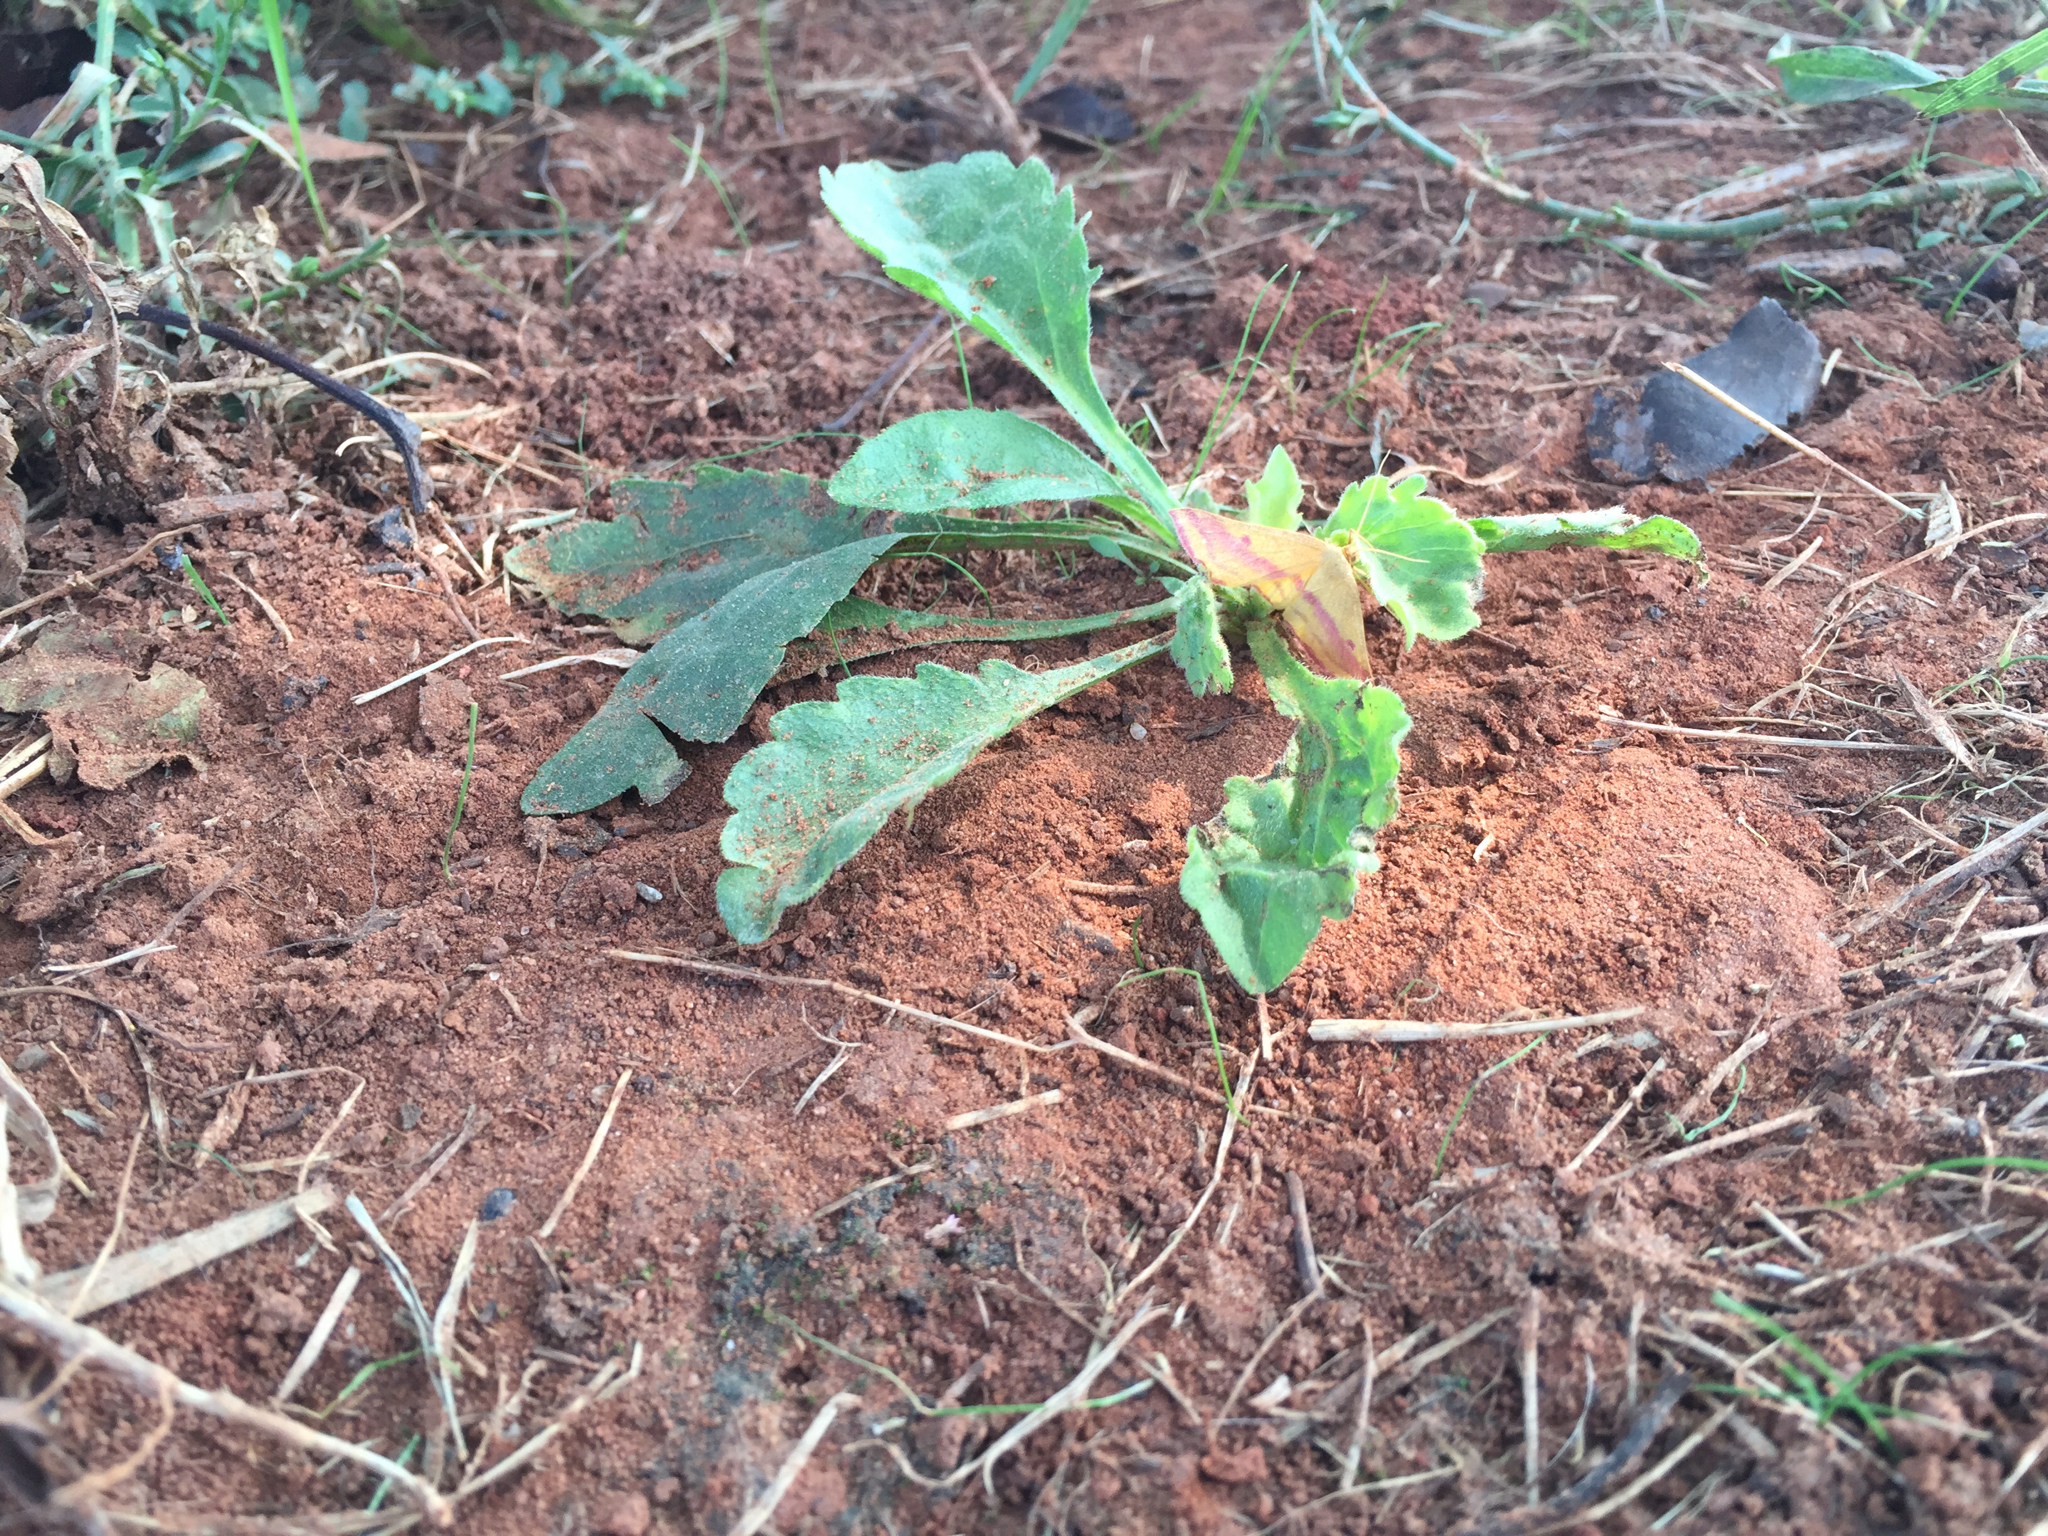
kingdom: Animalia
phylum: Arthropoda
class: Insecta
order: Lepidoptera
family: Geometridae
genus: Haematopis
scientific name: Haematopis grataria
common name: Chickweed geometer
